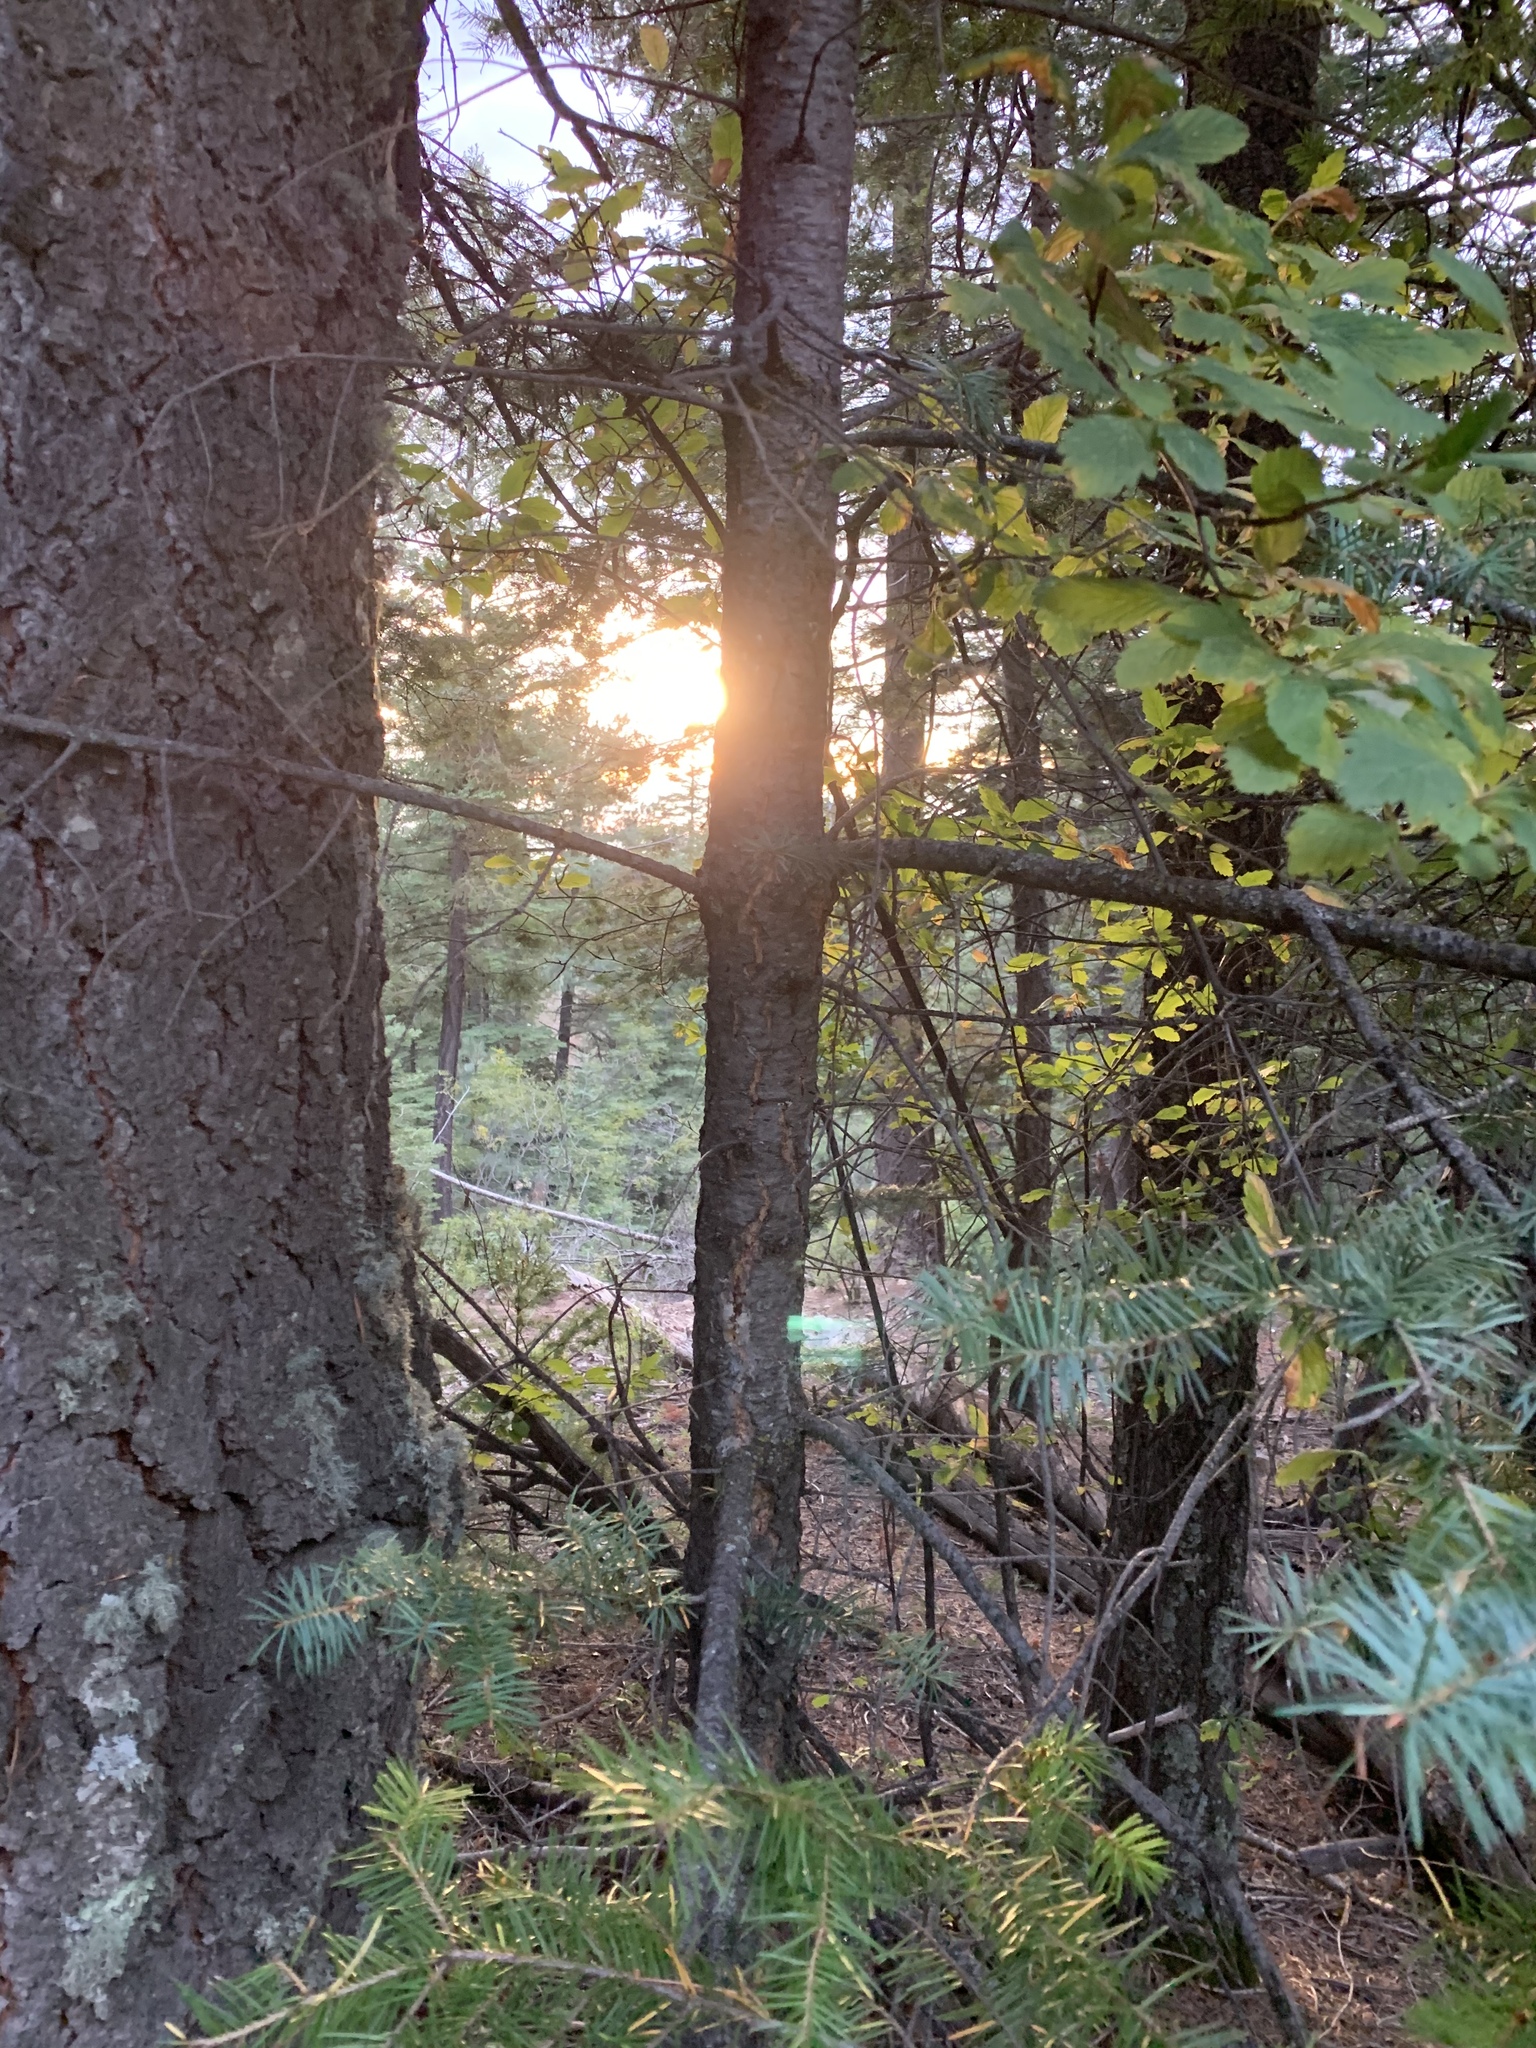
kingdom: Plantae
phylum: Tracheophyta
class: Pinopsida
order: Pinales
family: Pinaceae
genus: Pseudotsuga
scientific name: Pseudotsuga menziesii
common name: Douglas fir
